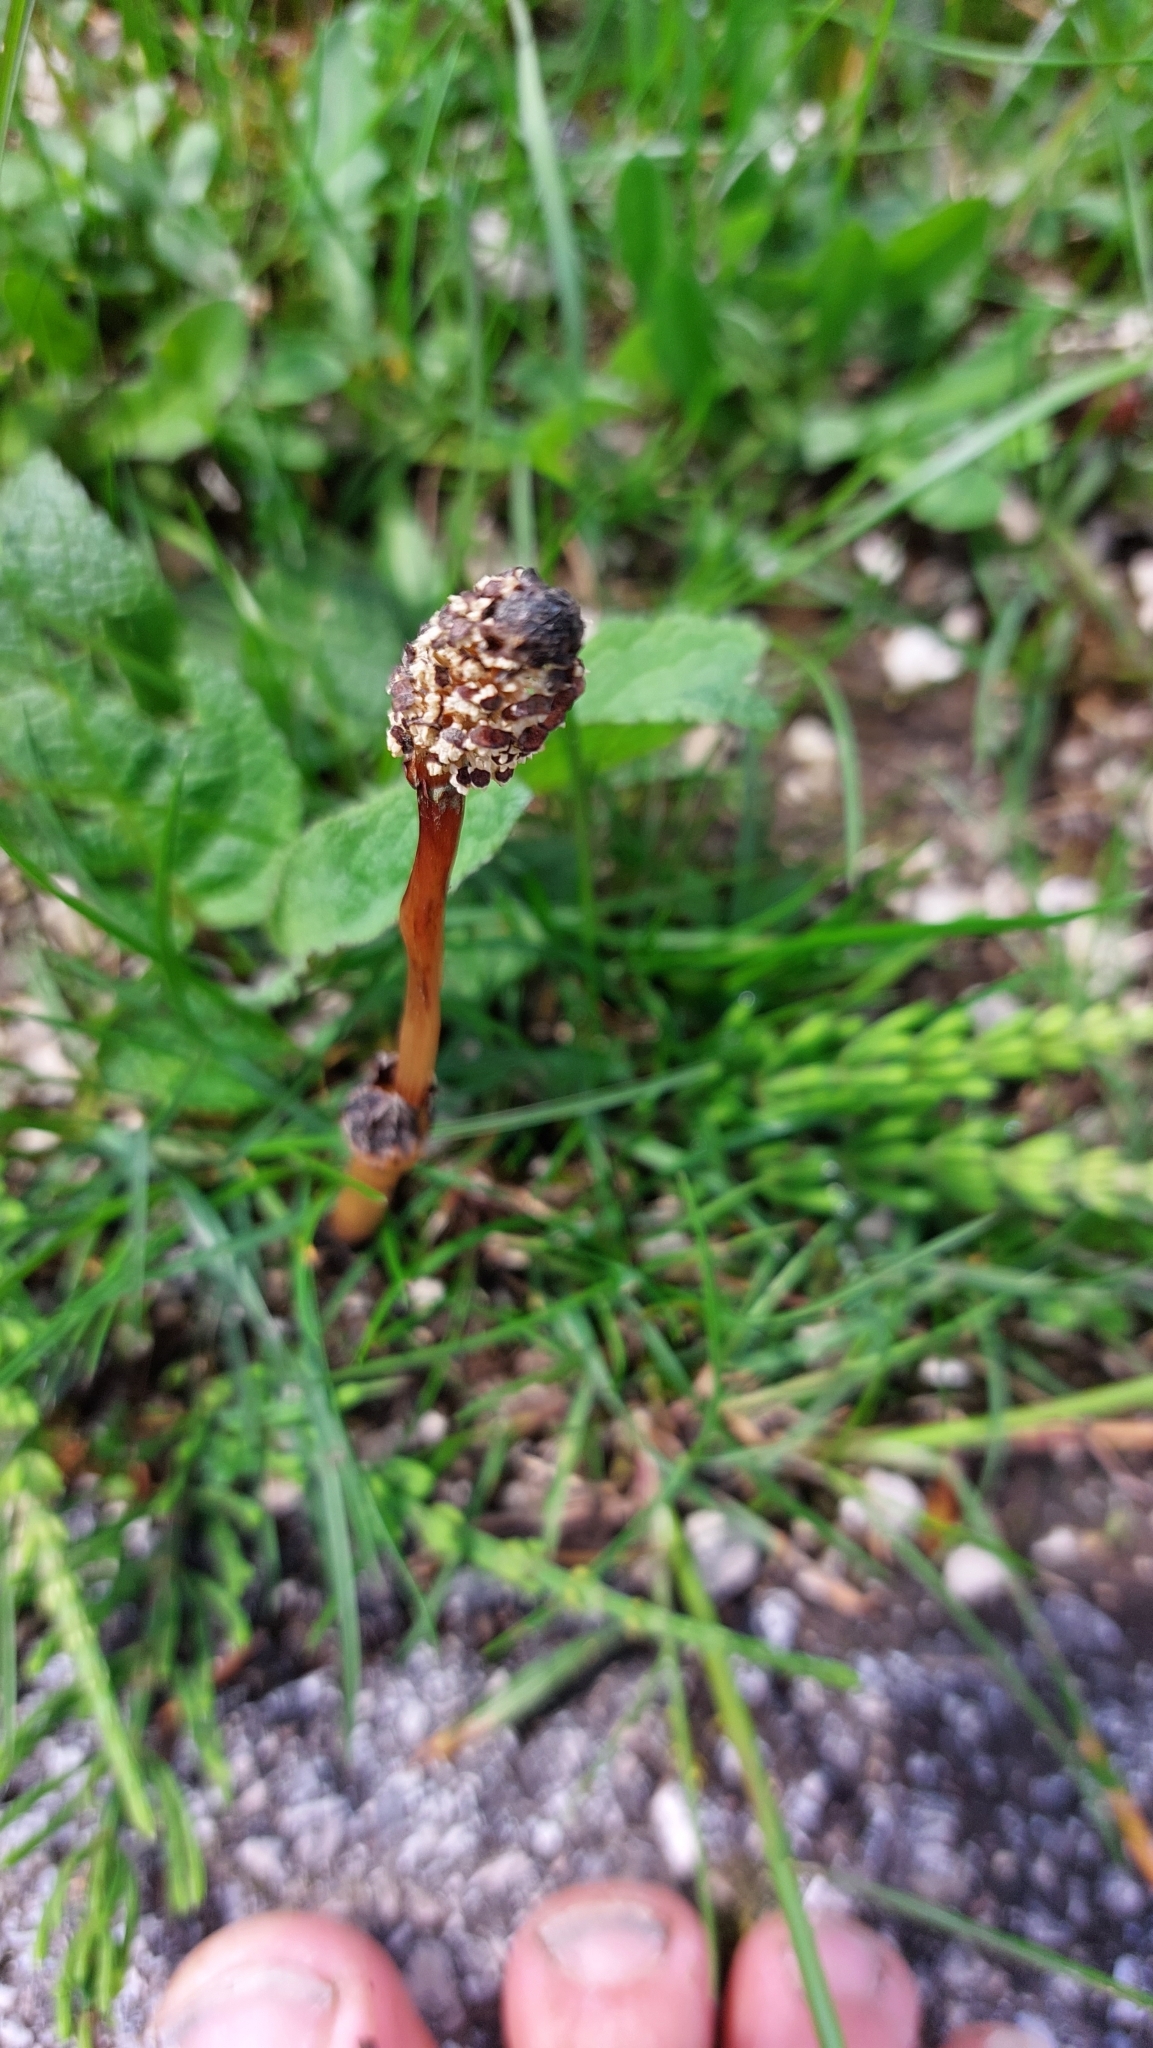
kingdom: Plantae
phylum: Tracheophyta
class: Polypodiopsida
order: Equisetales
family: Equisetaceae
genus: Equisetum
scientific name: Equisetum arvense
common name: Field horsetail
